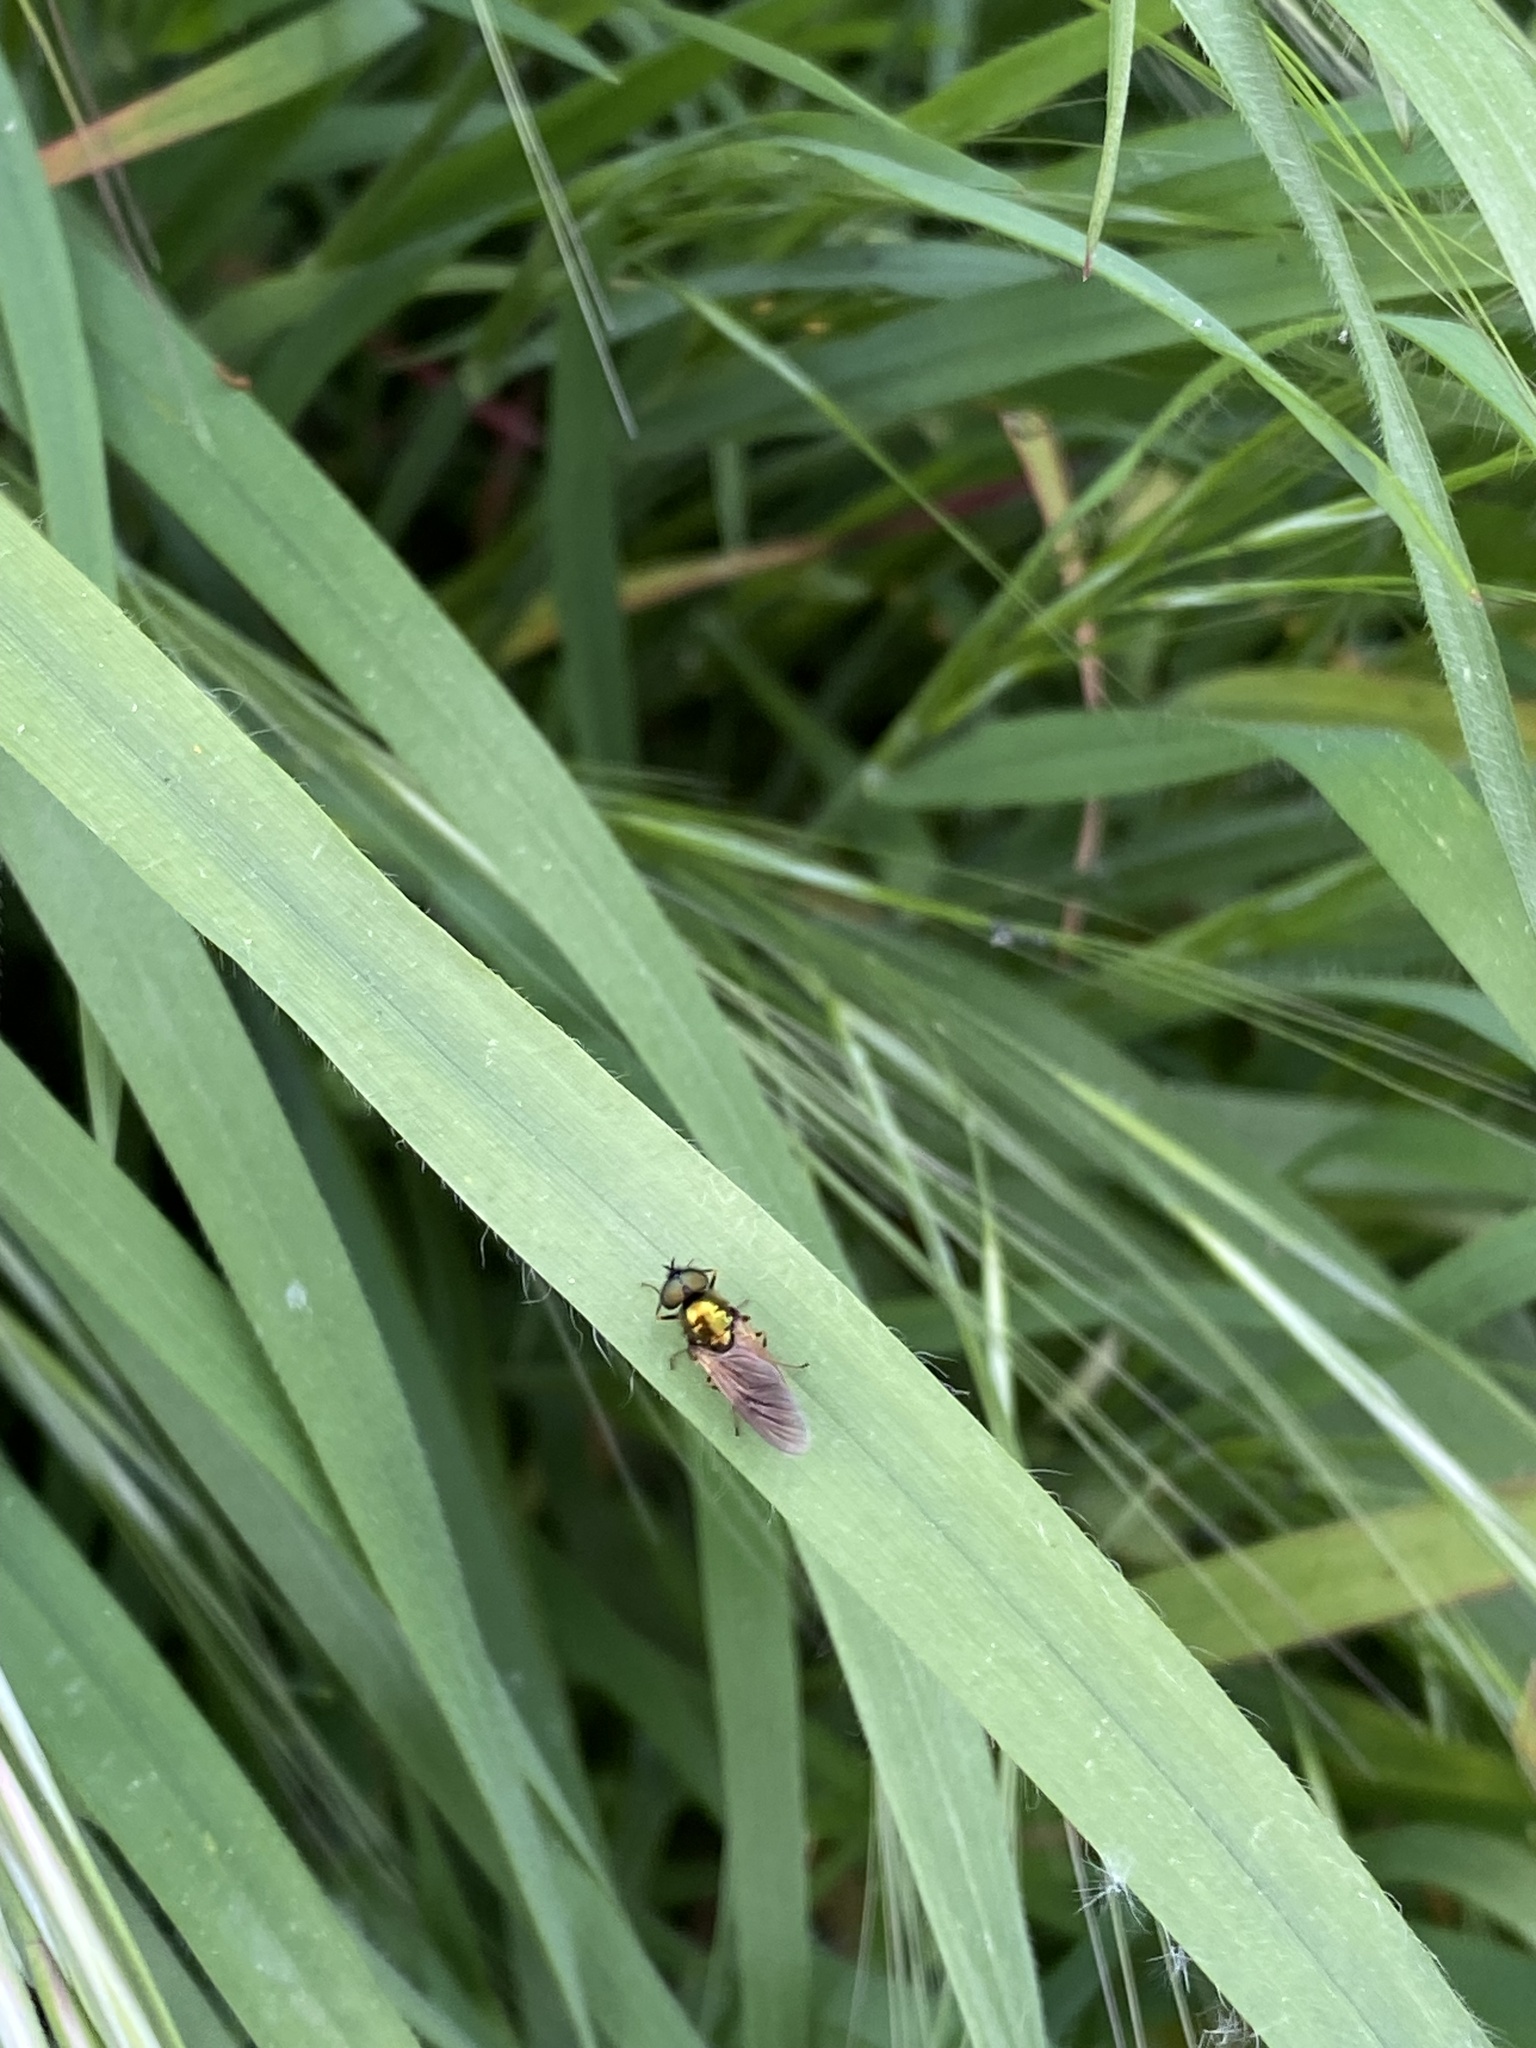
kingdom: Animalia
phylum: Arthropoda
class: Insecta
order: Diptera
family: Stratiomyidae
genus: Chloromyia
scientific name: Chloromyia formosa
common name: Soldier fly
